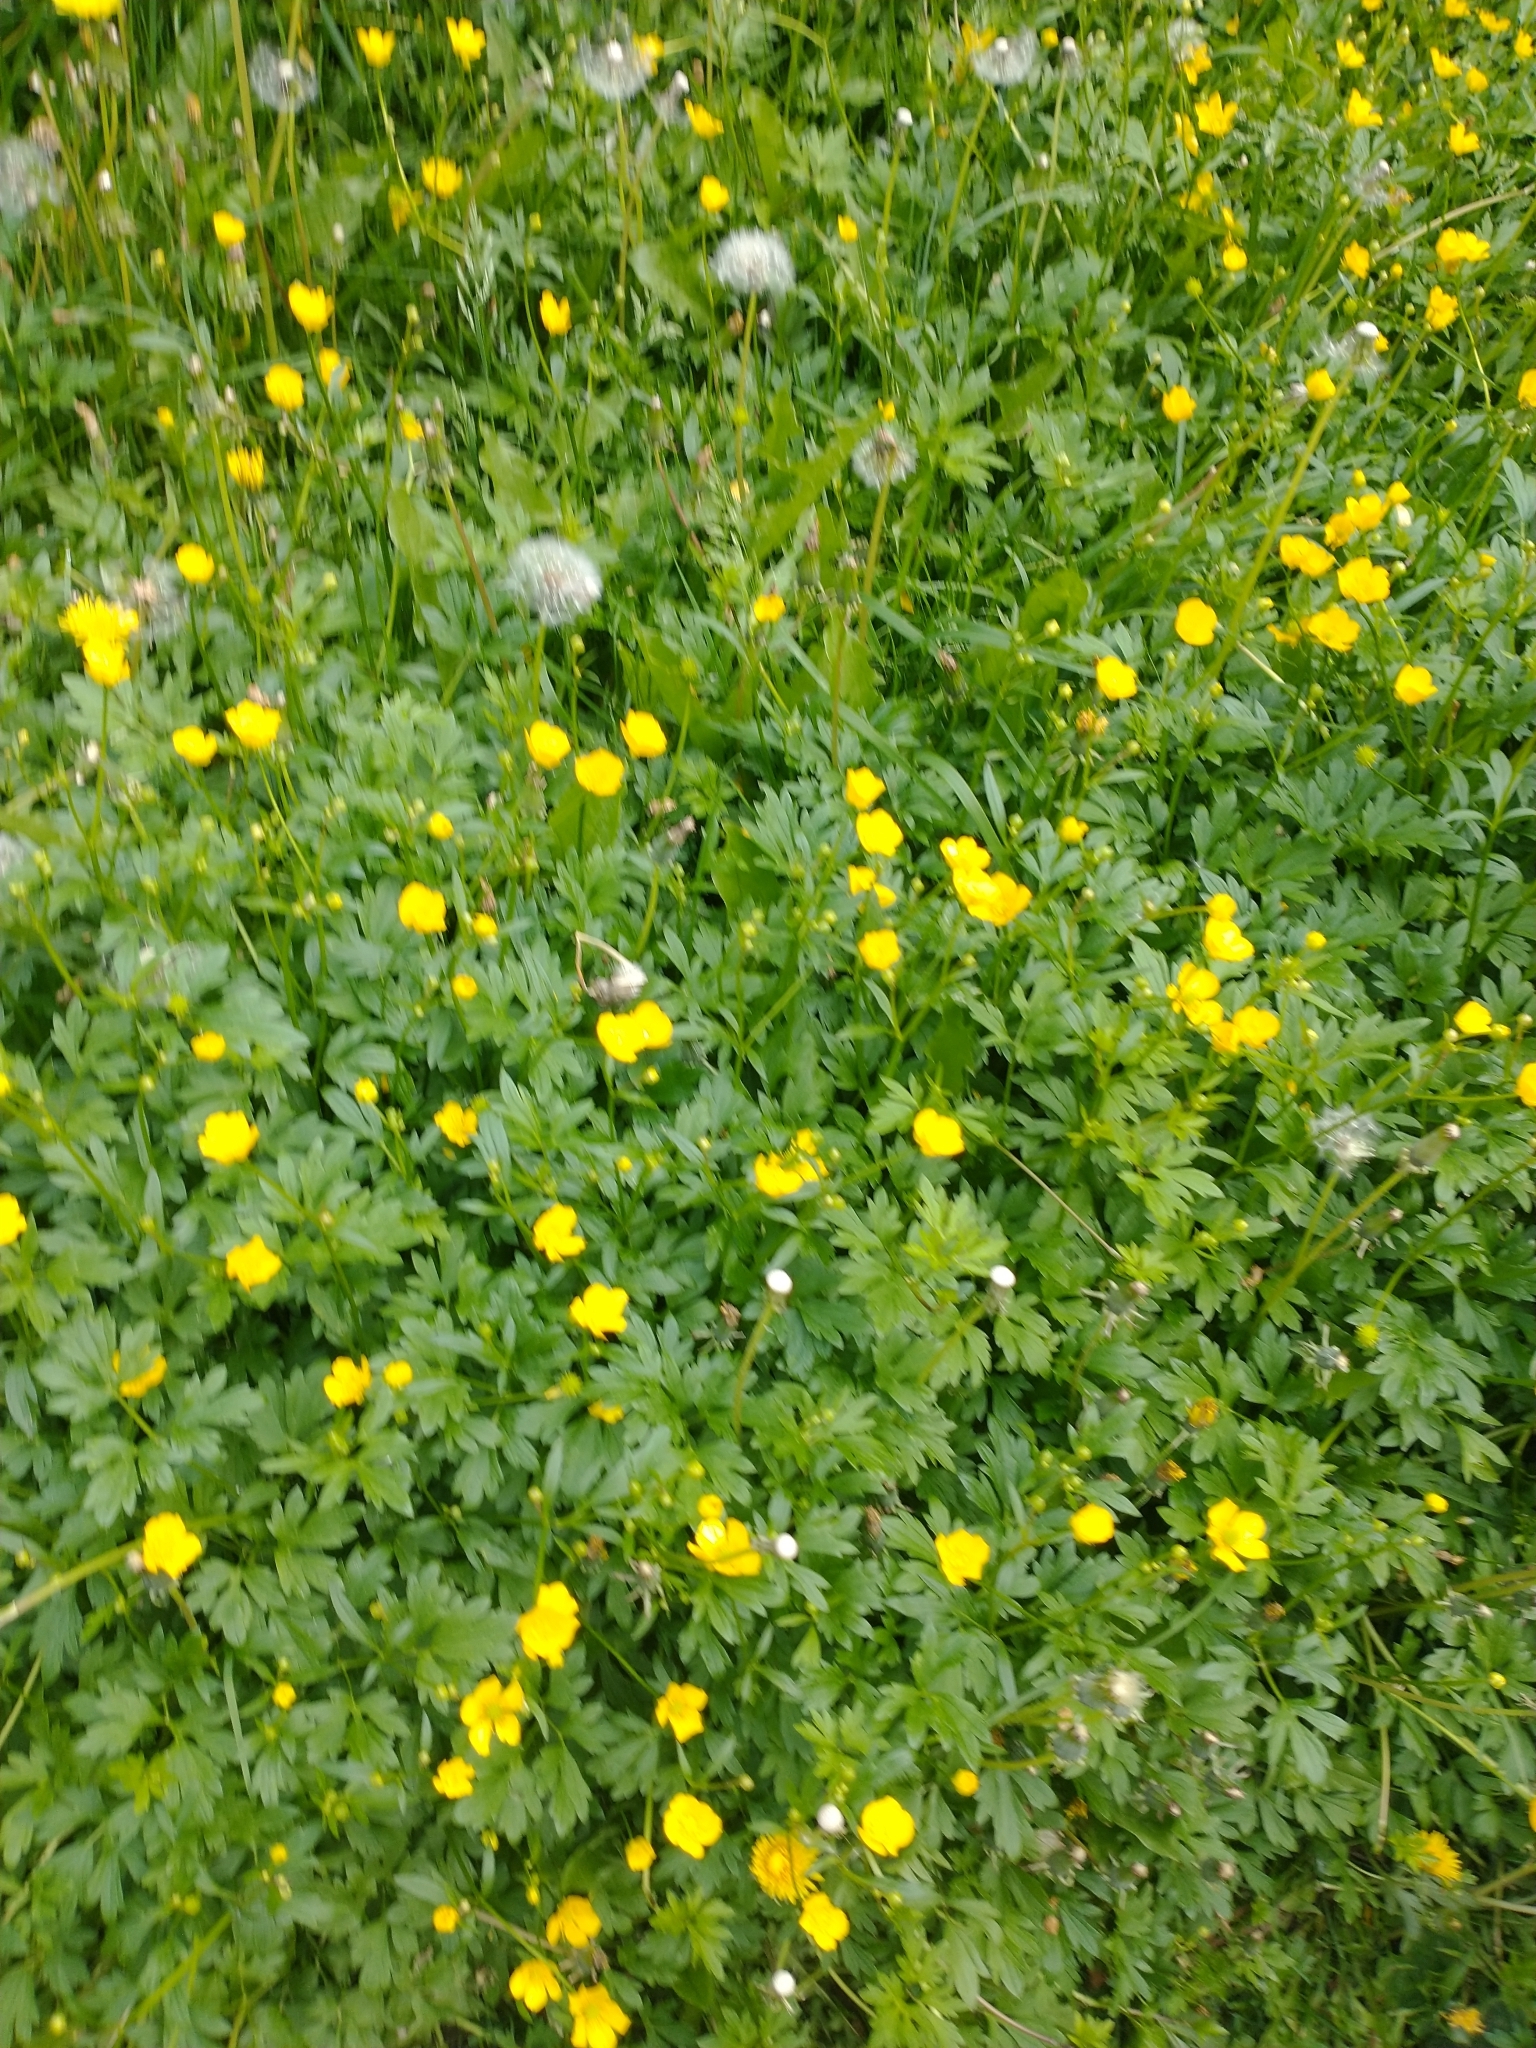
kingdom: Plantae
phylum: Tracheophyta
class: Magnoliopsida
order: Ranunculales
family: Ranunculaceae
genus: Ranunculus
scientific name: Ranunculus acris
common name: Meadow buttercup
